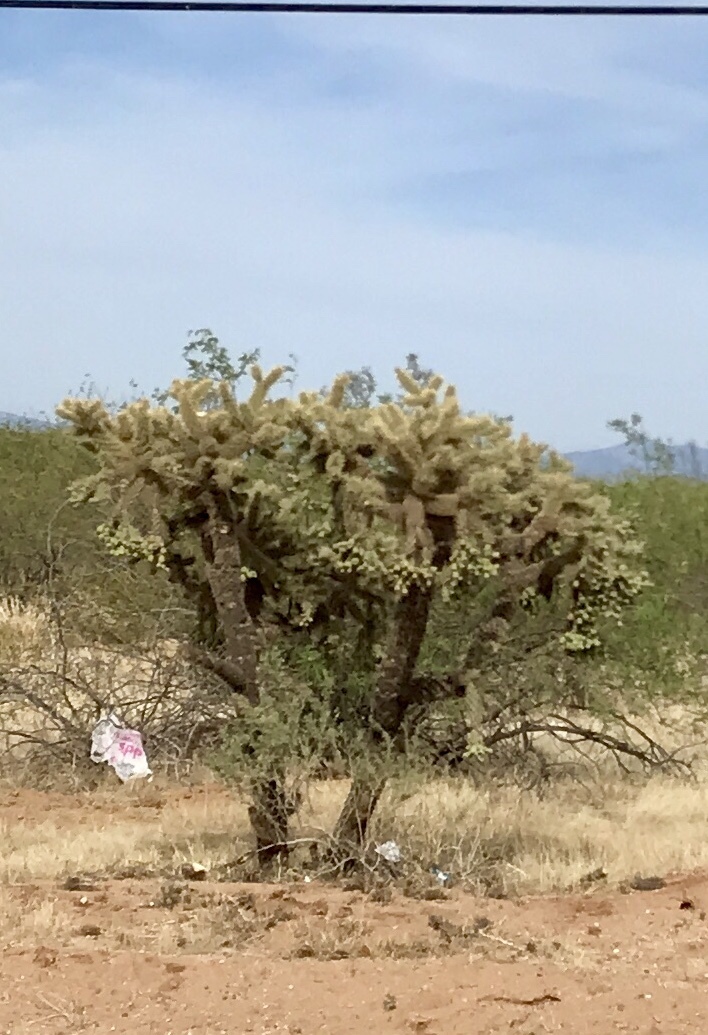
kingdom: Plantae
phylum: Tracheophyta
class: Magnoliopsida
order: Caryophyllales
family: Cactaceae
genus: Cylindropuntia
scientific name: Cylindropuntia fulgida
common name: Jumping cholla
